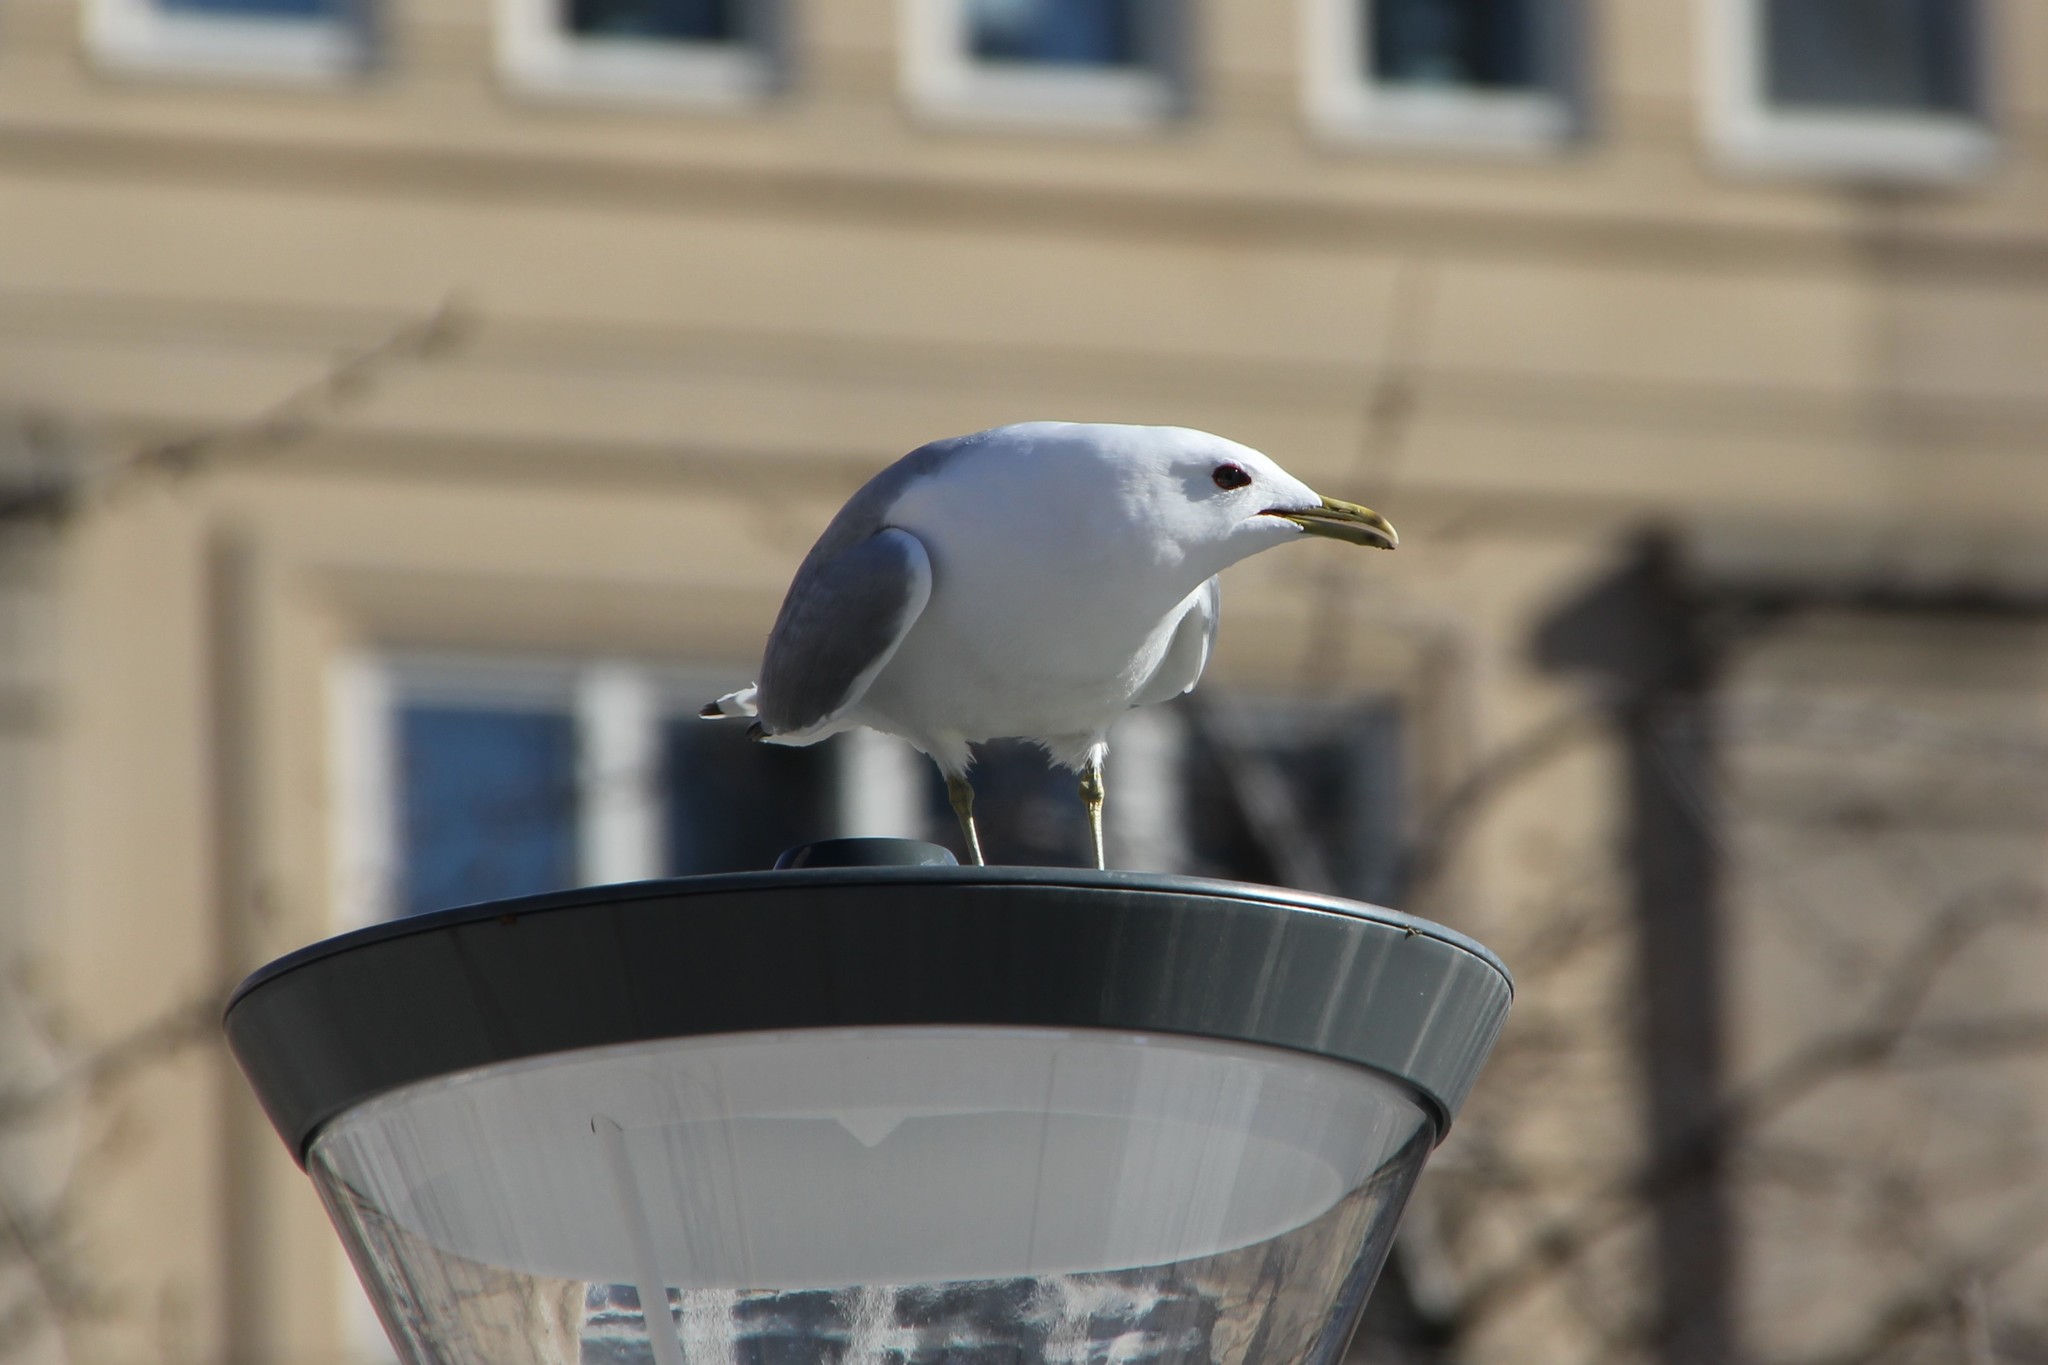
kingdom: Animalia
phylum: Chordata
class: Aves
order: Charadriiformes
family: Laridae
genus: Larus
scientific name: Larus canus
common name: Mew gull
